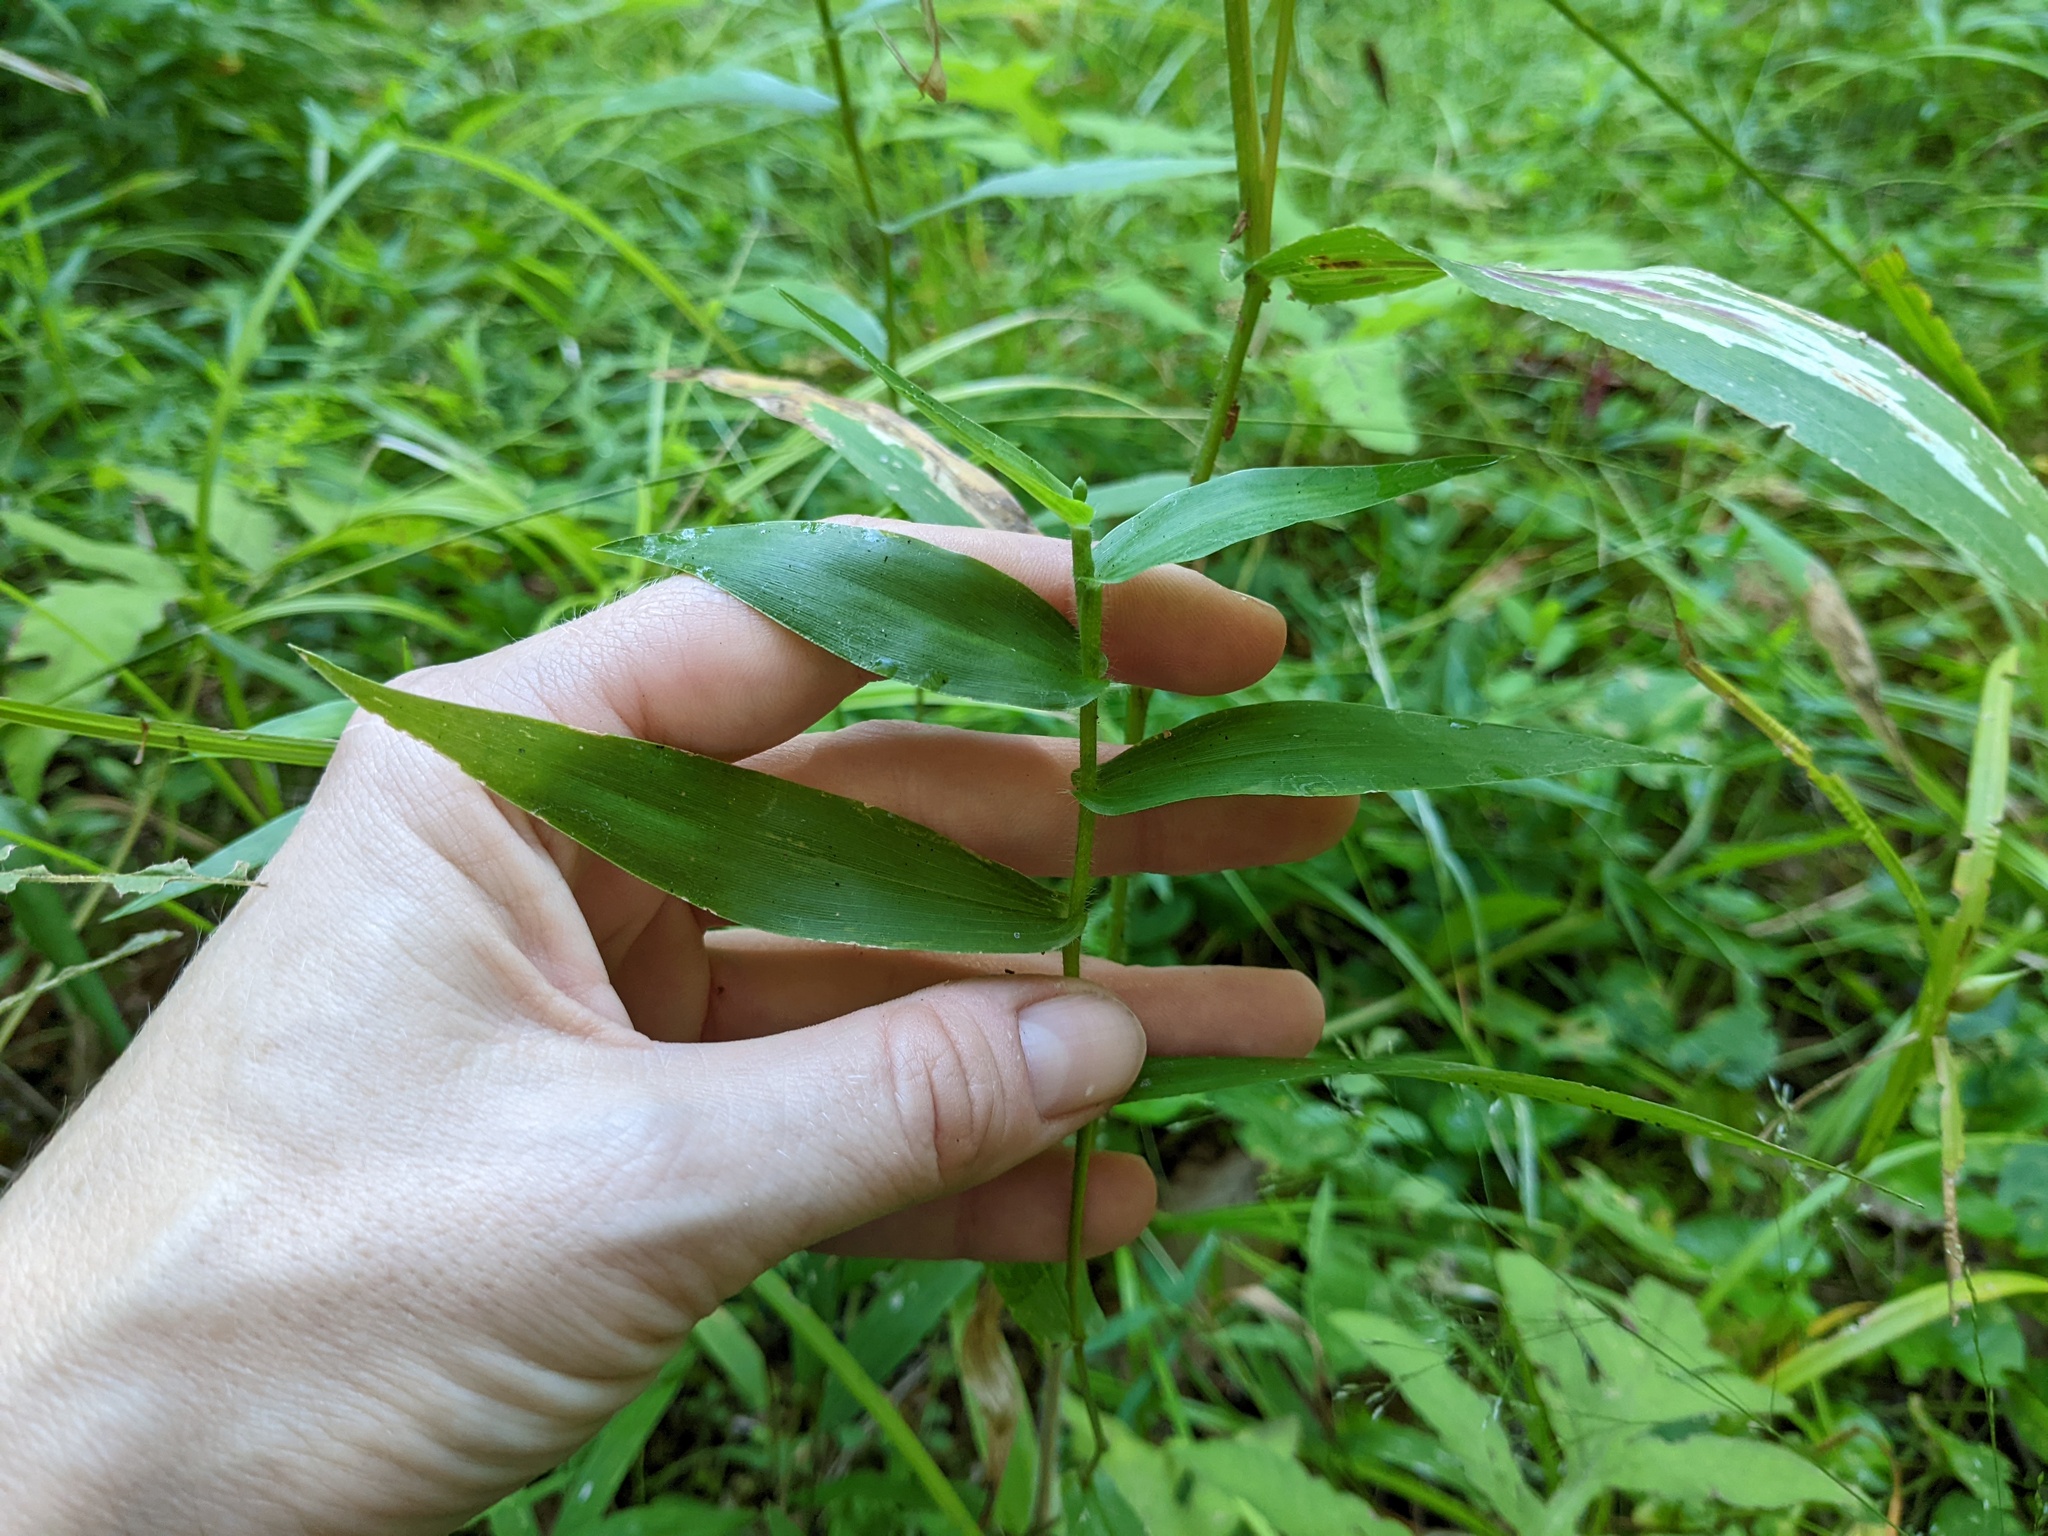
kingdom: Plantae
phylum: Tracheophyta
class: Liliopsida
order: Poales
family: Poaceae
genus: Dichanthelium
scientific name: Dichanthelium clandestinum
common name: Deer-tongue grass
